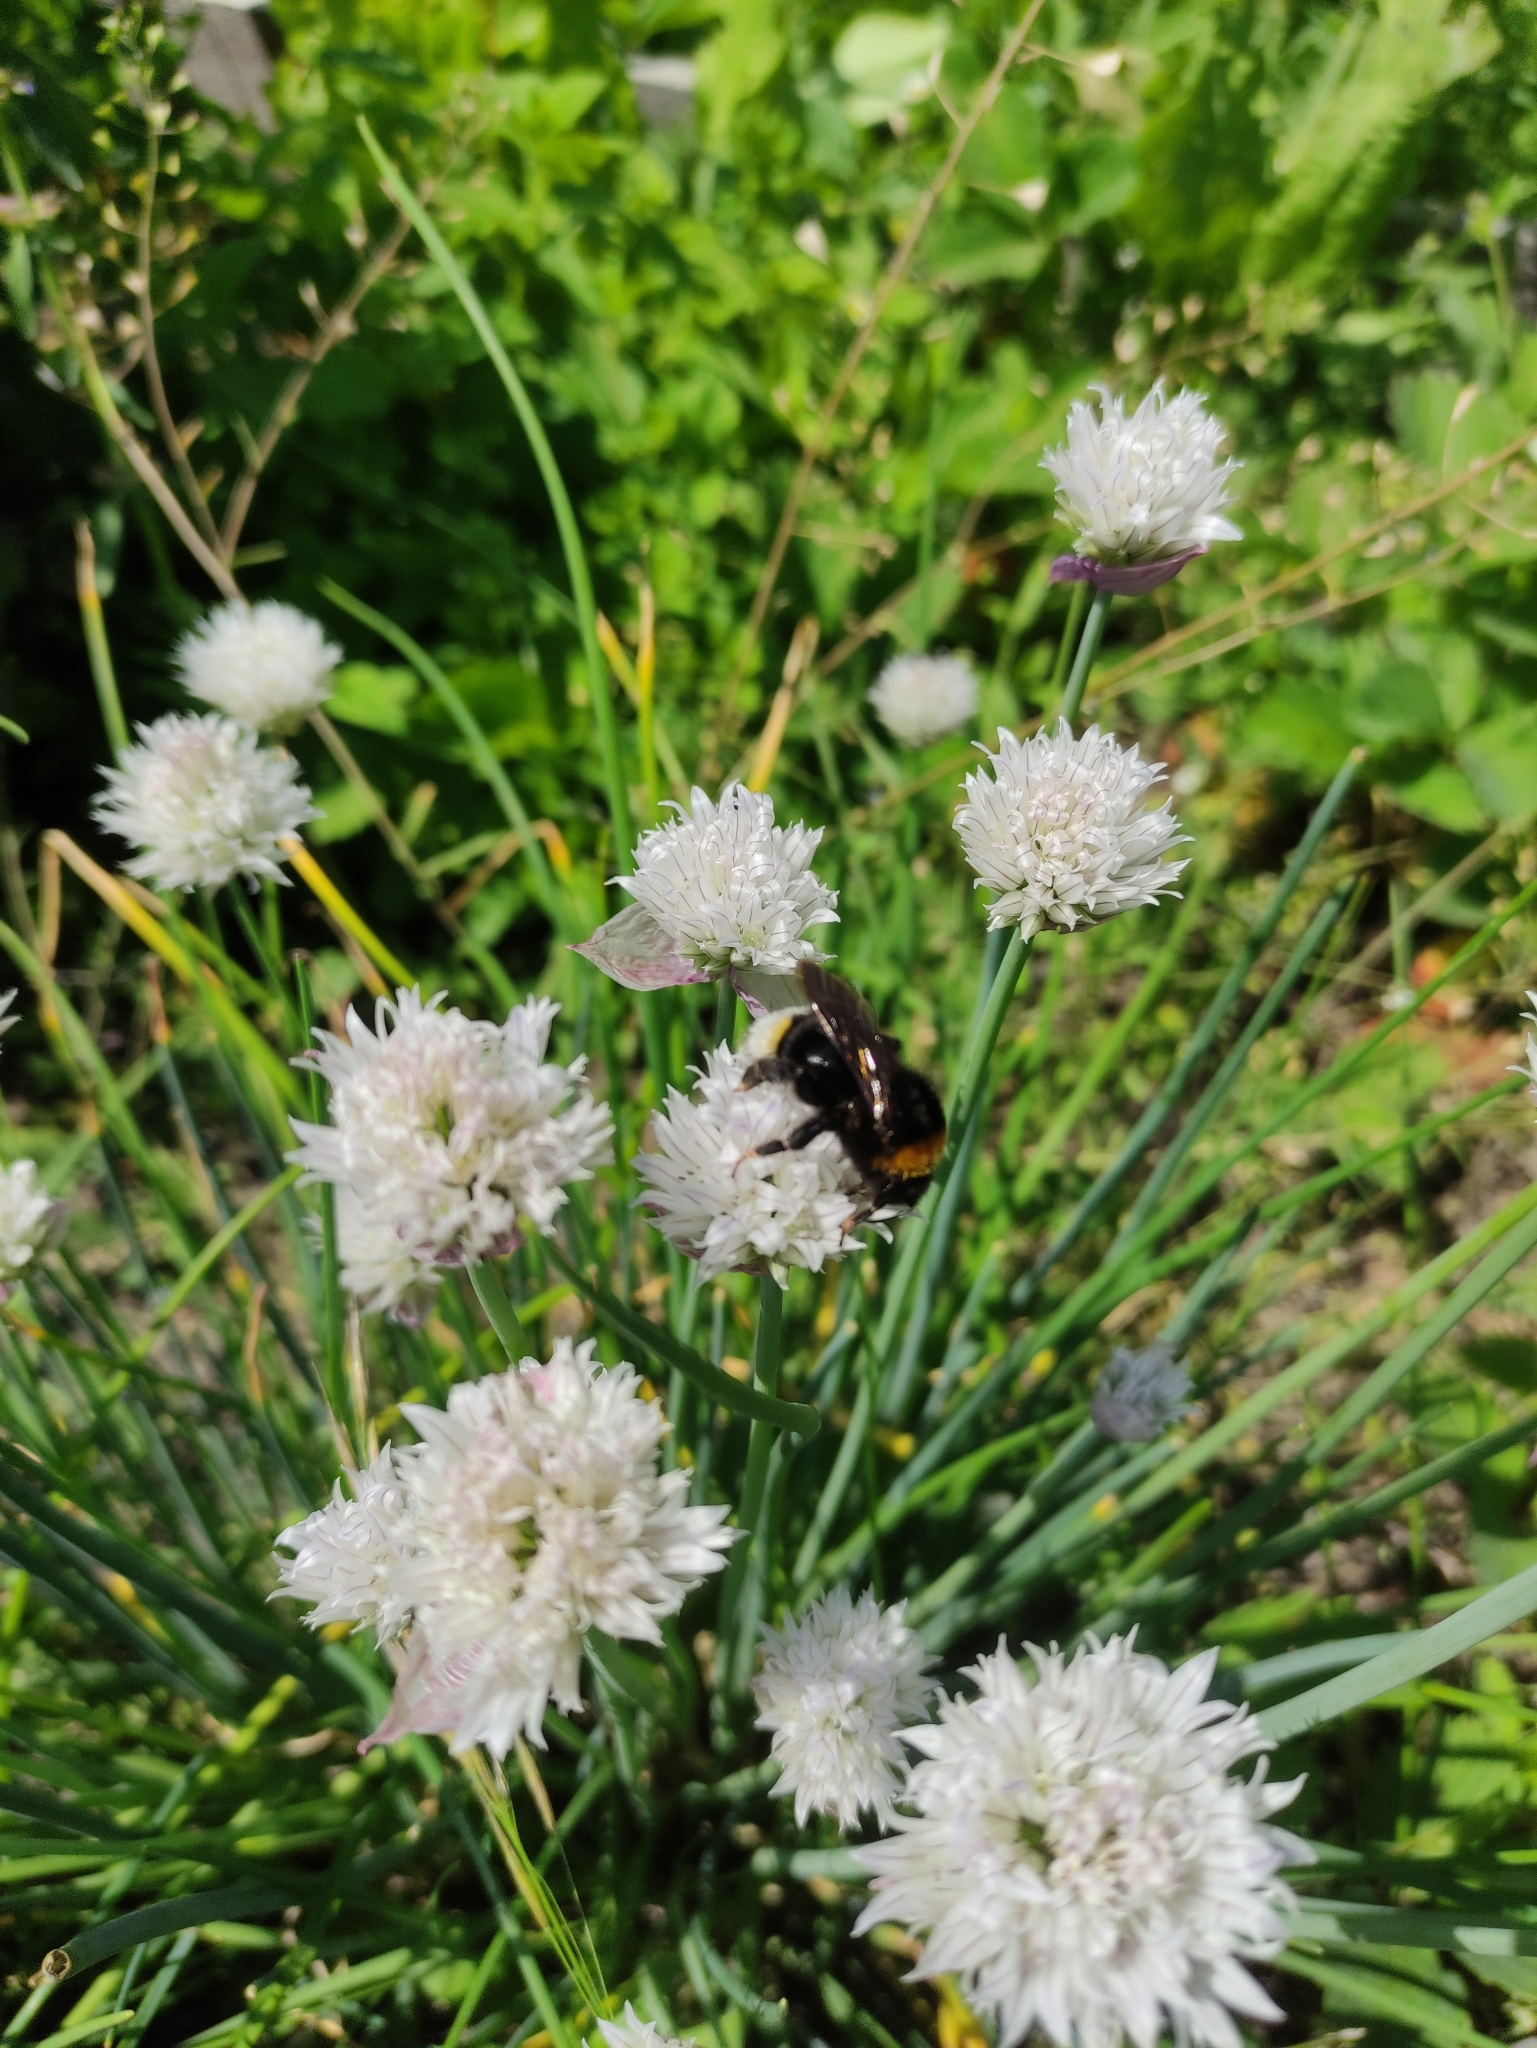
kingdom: Animalia
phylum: Arthropoda
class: Insecta
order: Hymenoptera
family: Apidae
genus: Bombus
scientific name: Bombus vestalis
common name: Vestal cuckoo bee
